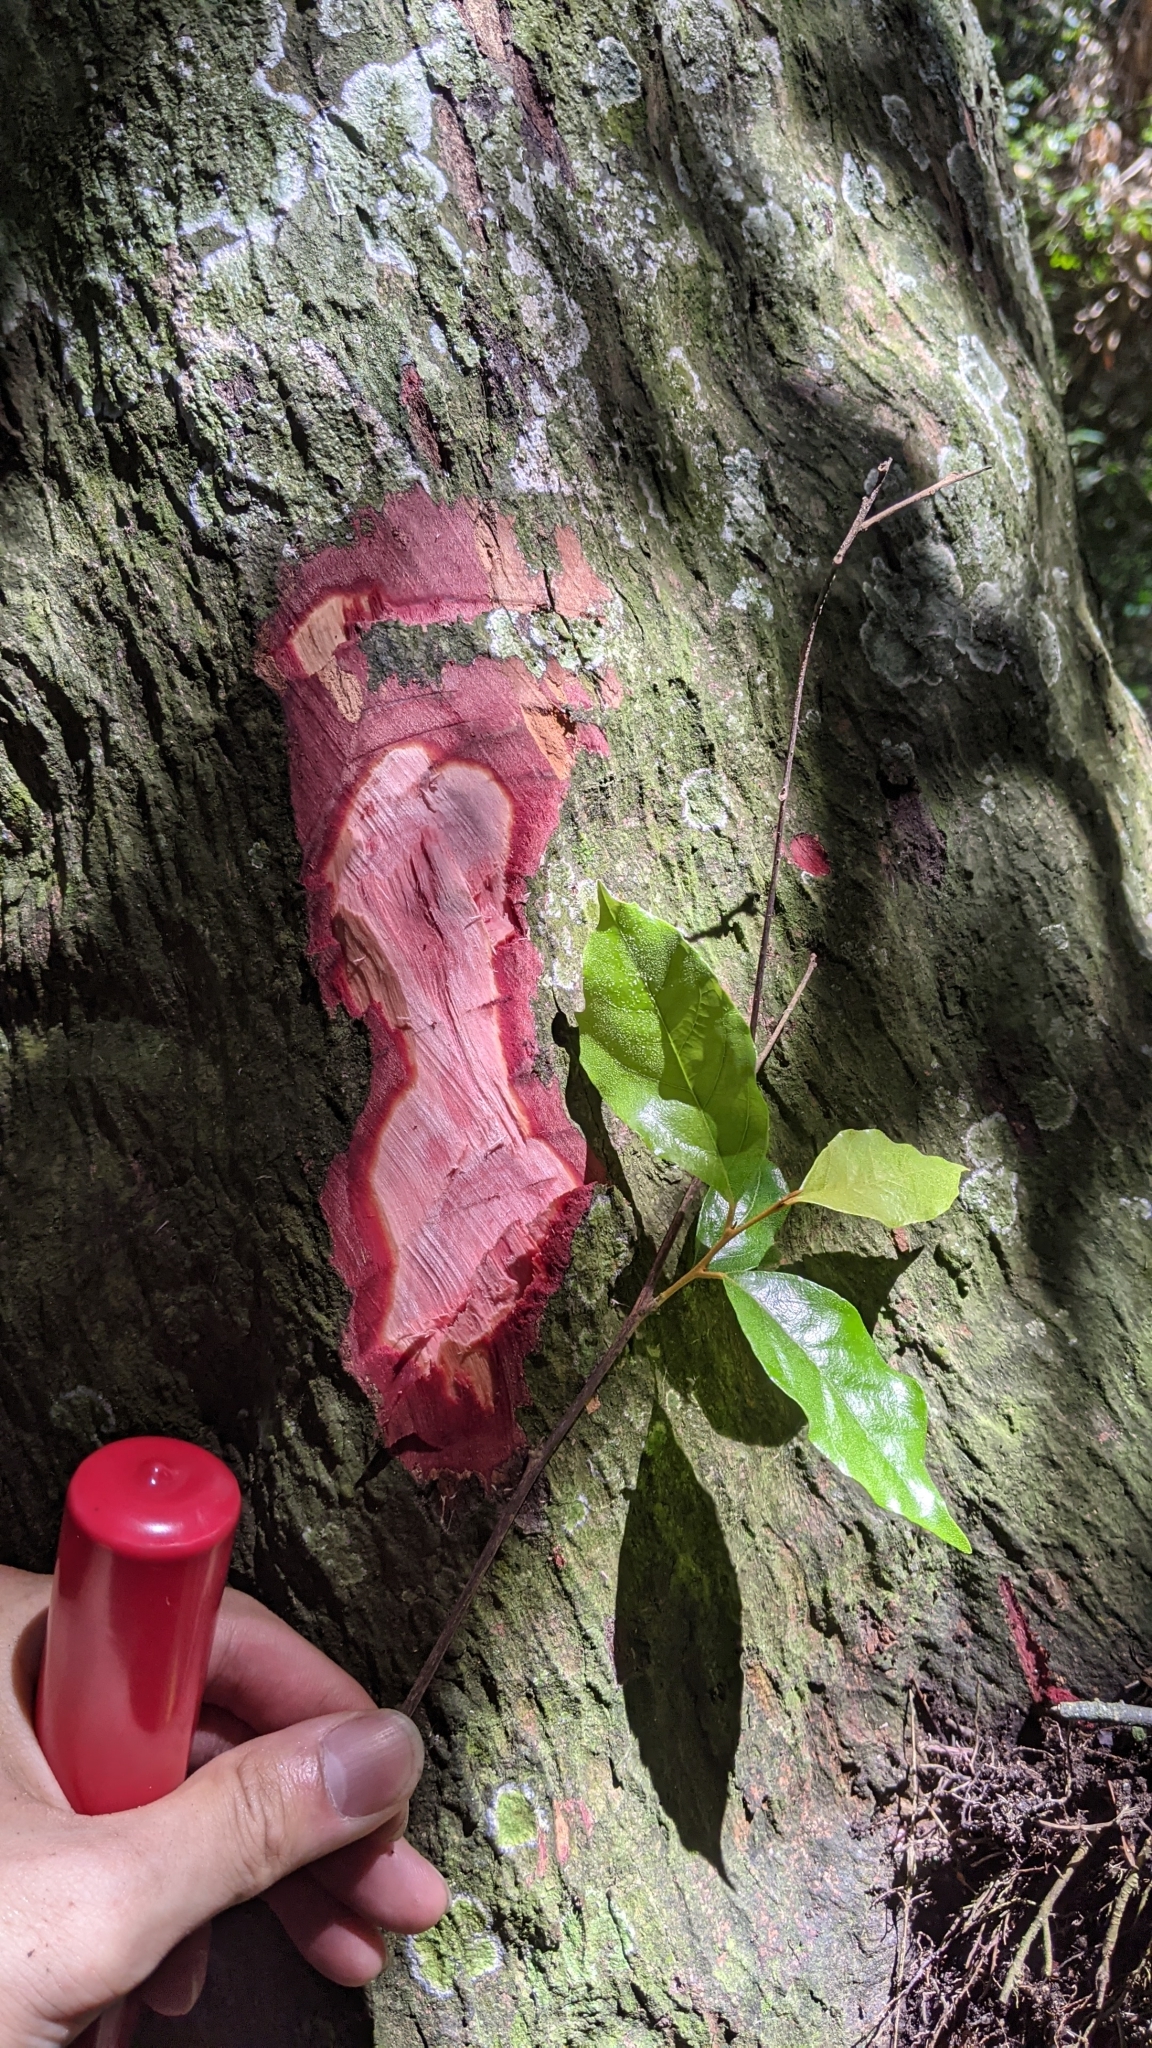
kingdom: Plantae
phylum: Tracheophyta
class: Magnoliopsida
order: Ericales
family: Styracaceae
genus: Styrax
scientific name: Styrax suberifolius
